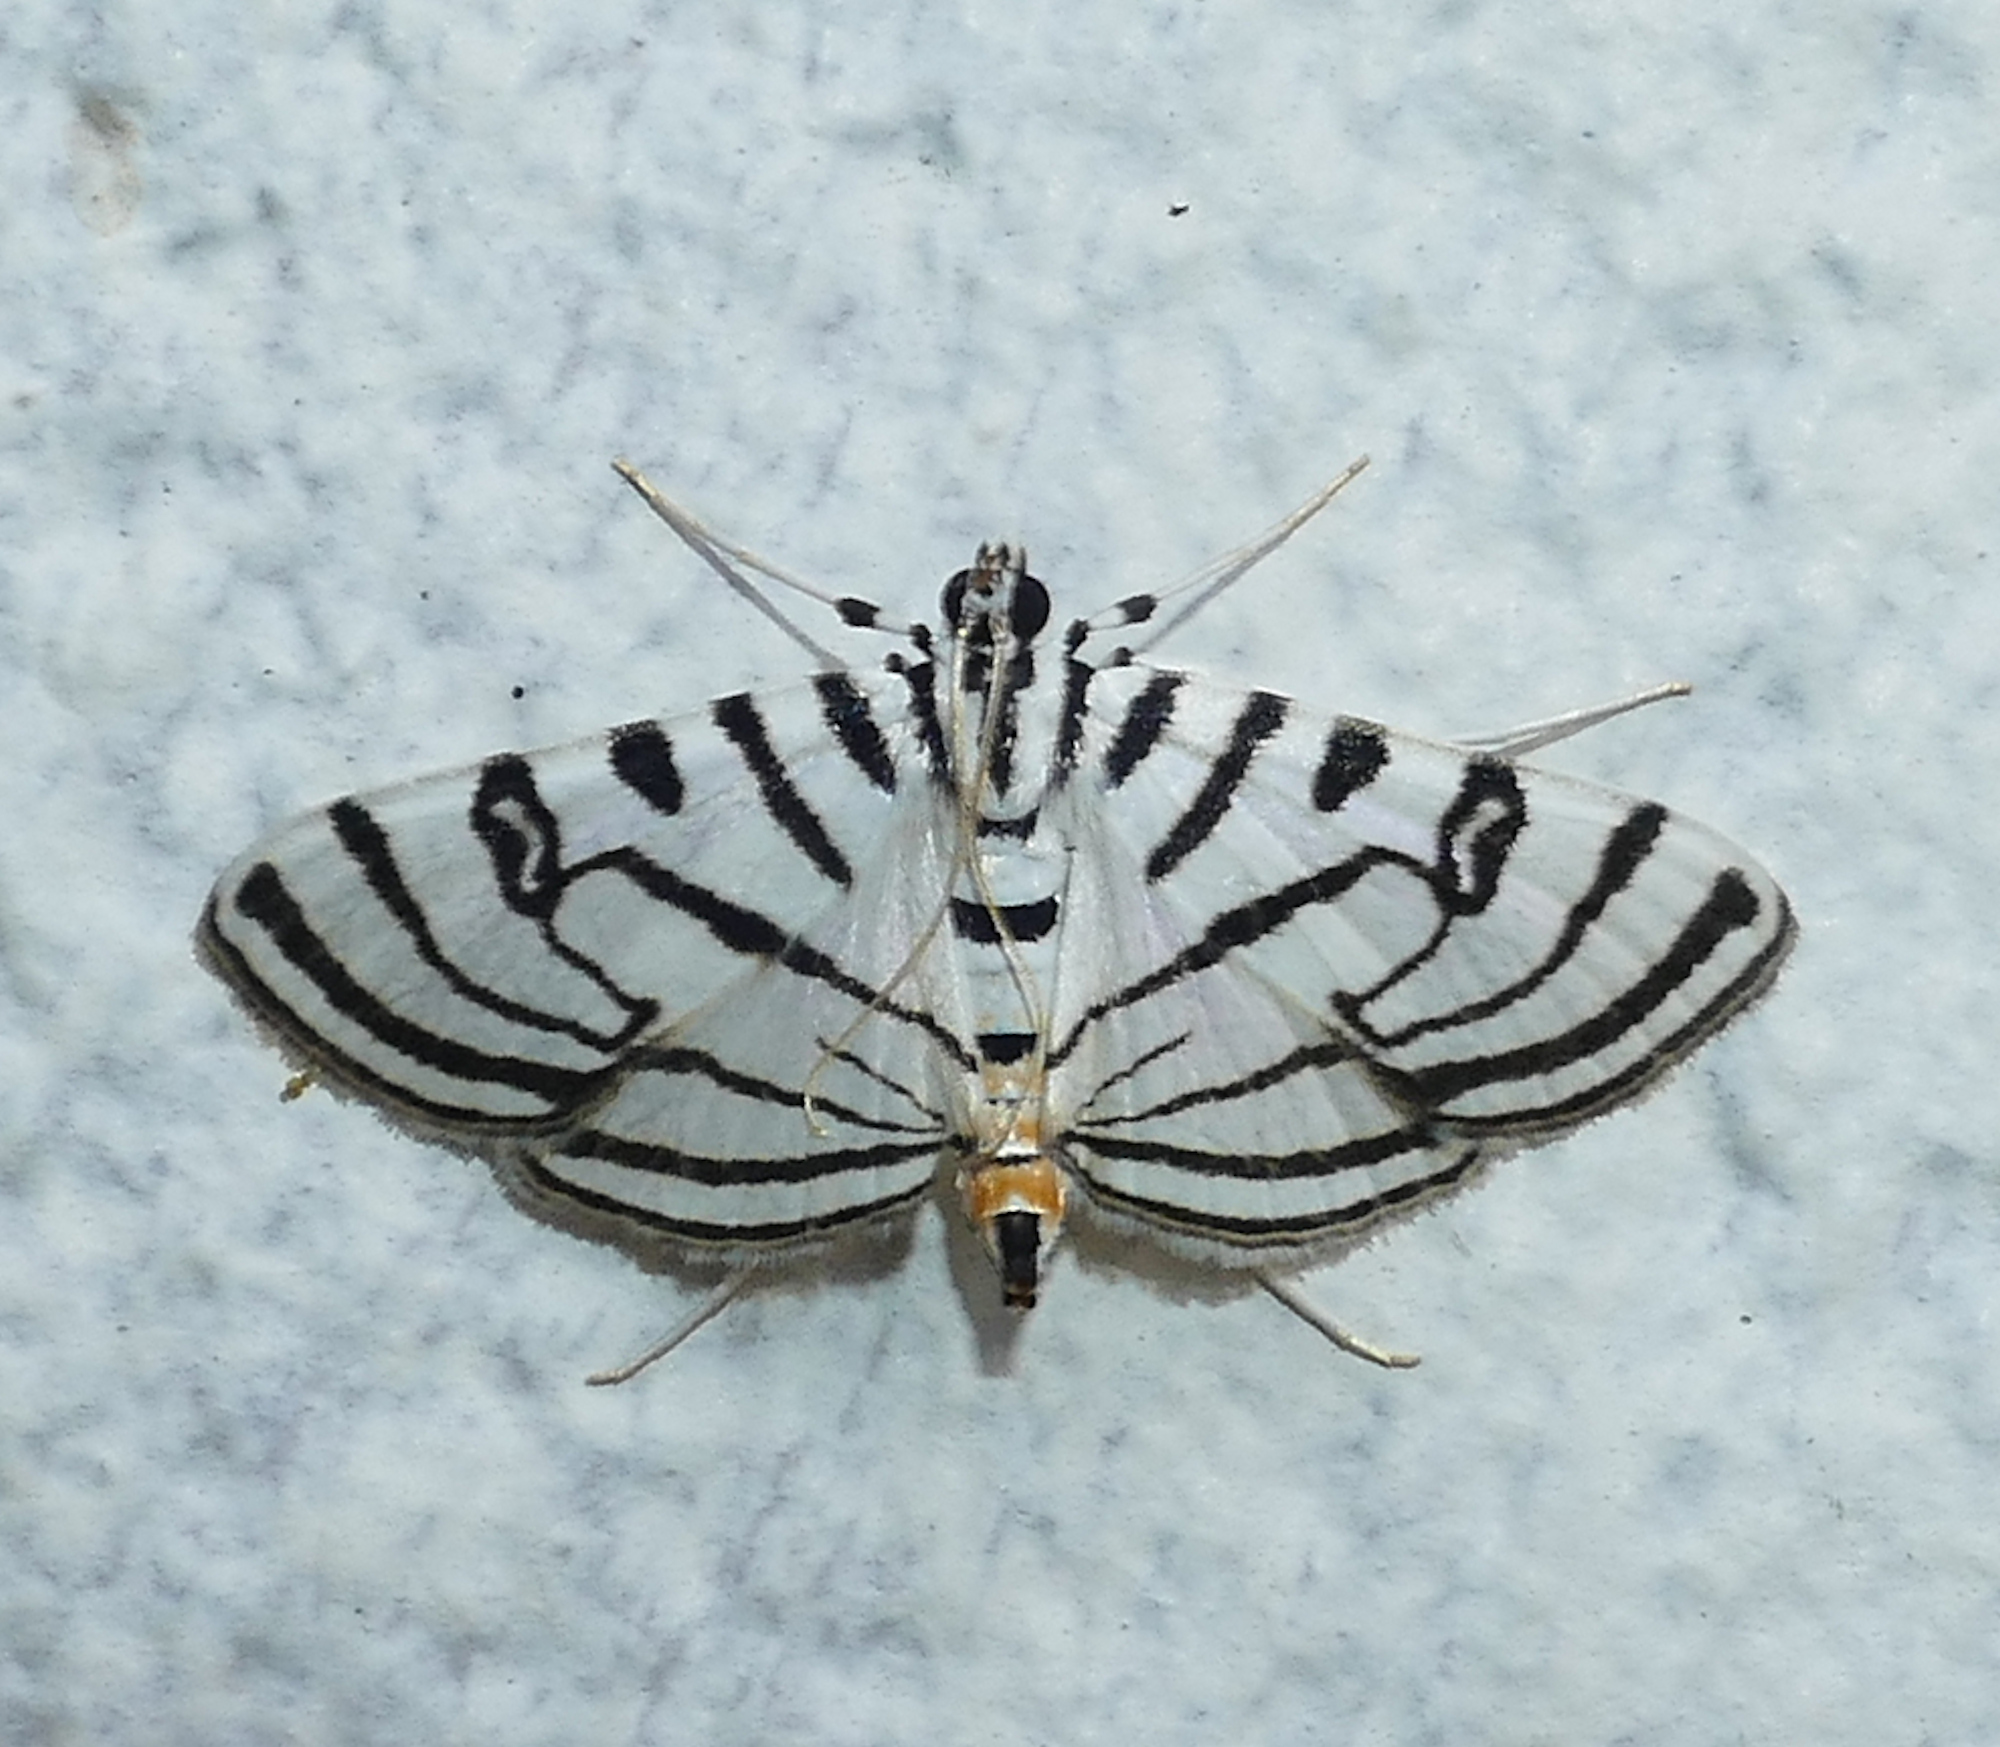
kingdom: Animalia
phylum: Arthropoda
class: Insecta
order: Lepidoptera
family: Crambidae
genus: Conchylodes
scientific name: Conchylodes ovulalis
